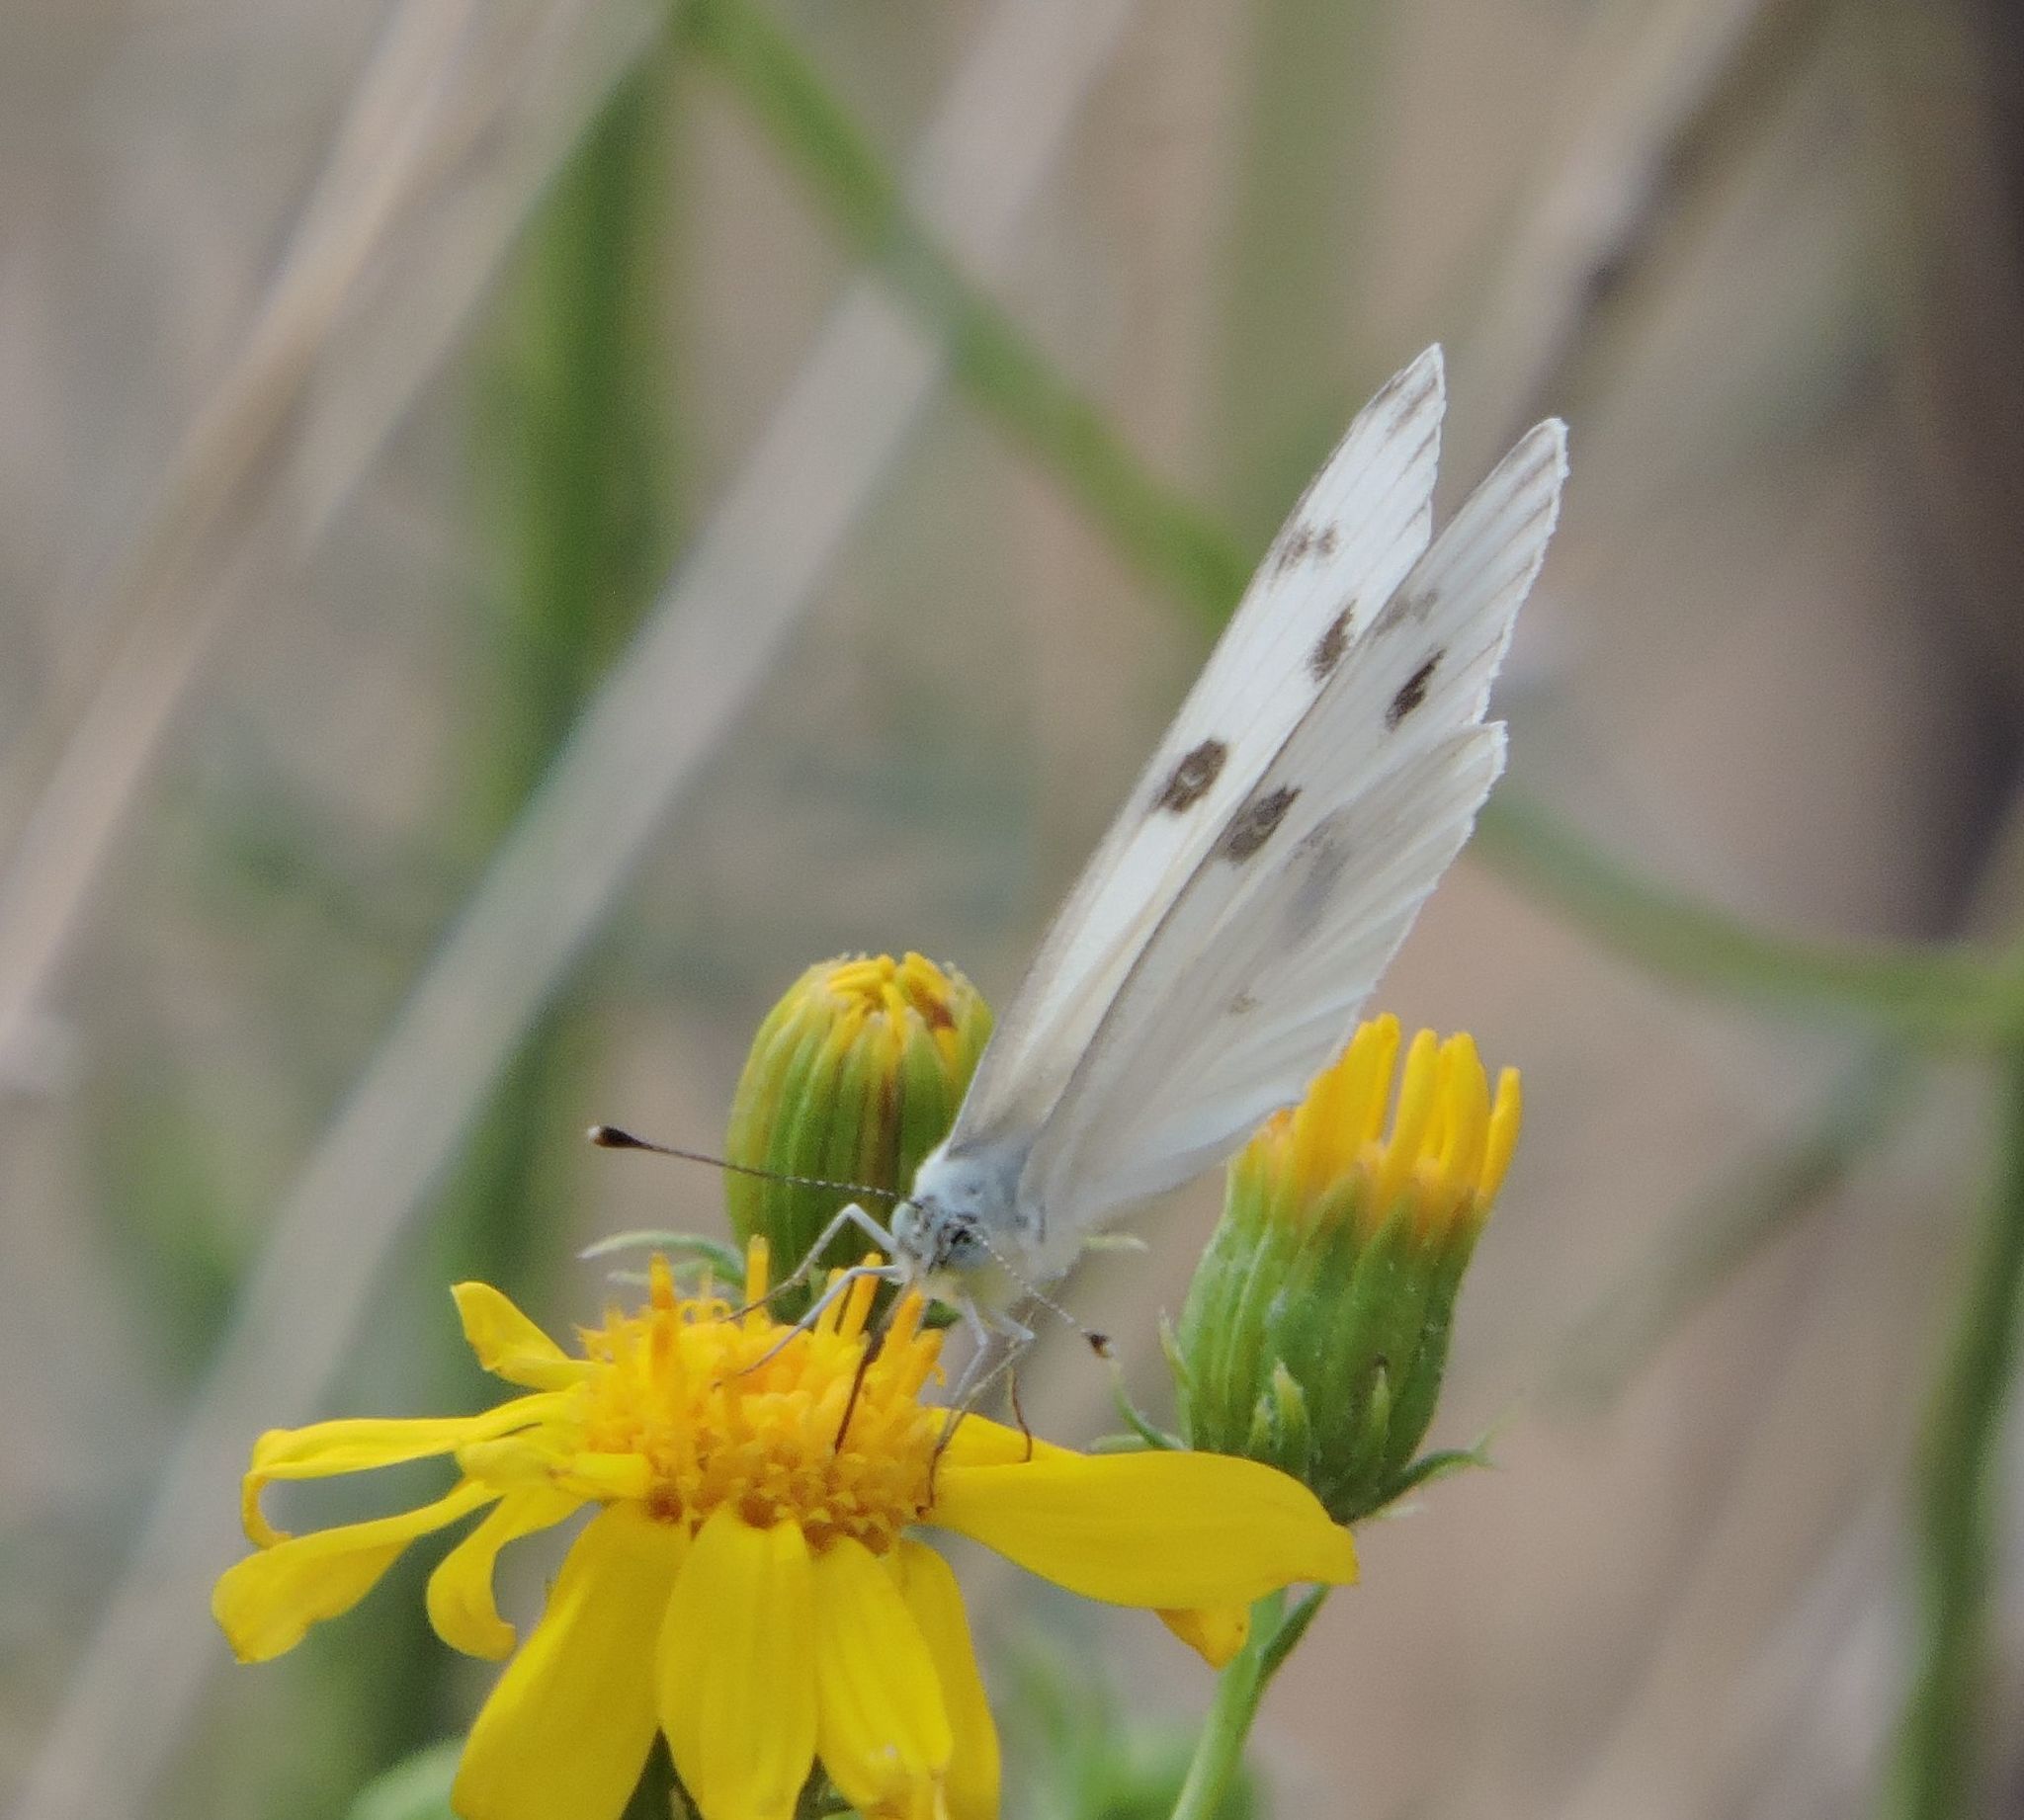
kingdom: Animalia
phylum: Arthropoda
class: Insecta
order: Lepidoptera
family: Pieridae
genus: Pontia
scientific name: Pontia protodice
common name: Checkered white
